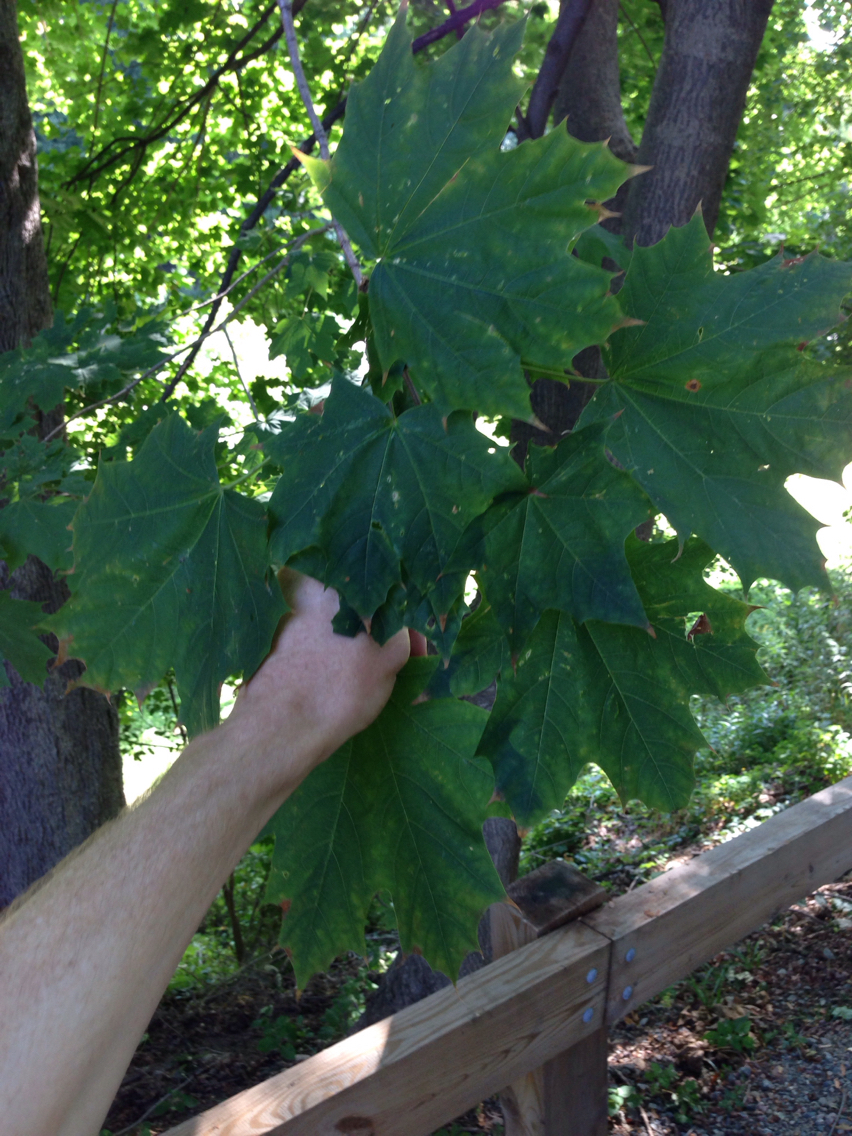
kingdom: Plantae
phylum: Tracheophyta
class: Magnoliopsida
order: Sapindales
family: Sapindaceae
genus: Acer
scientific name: Acer platanoides
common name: Norway maple
